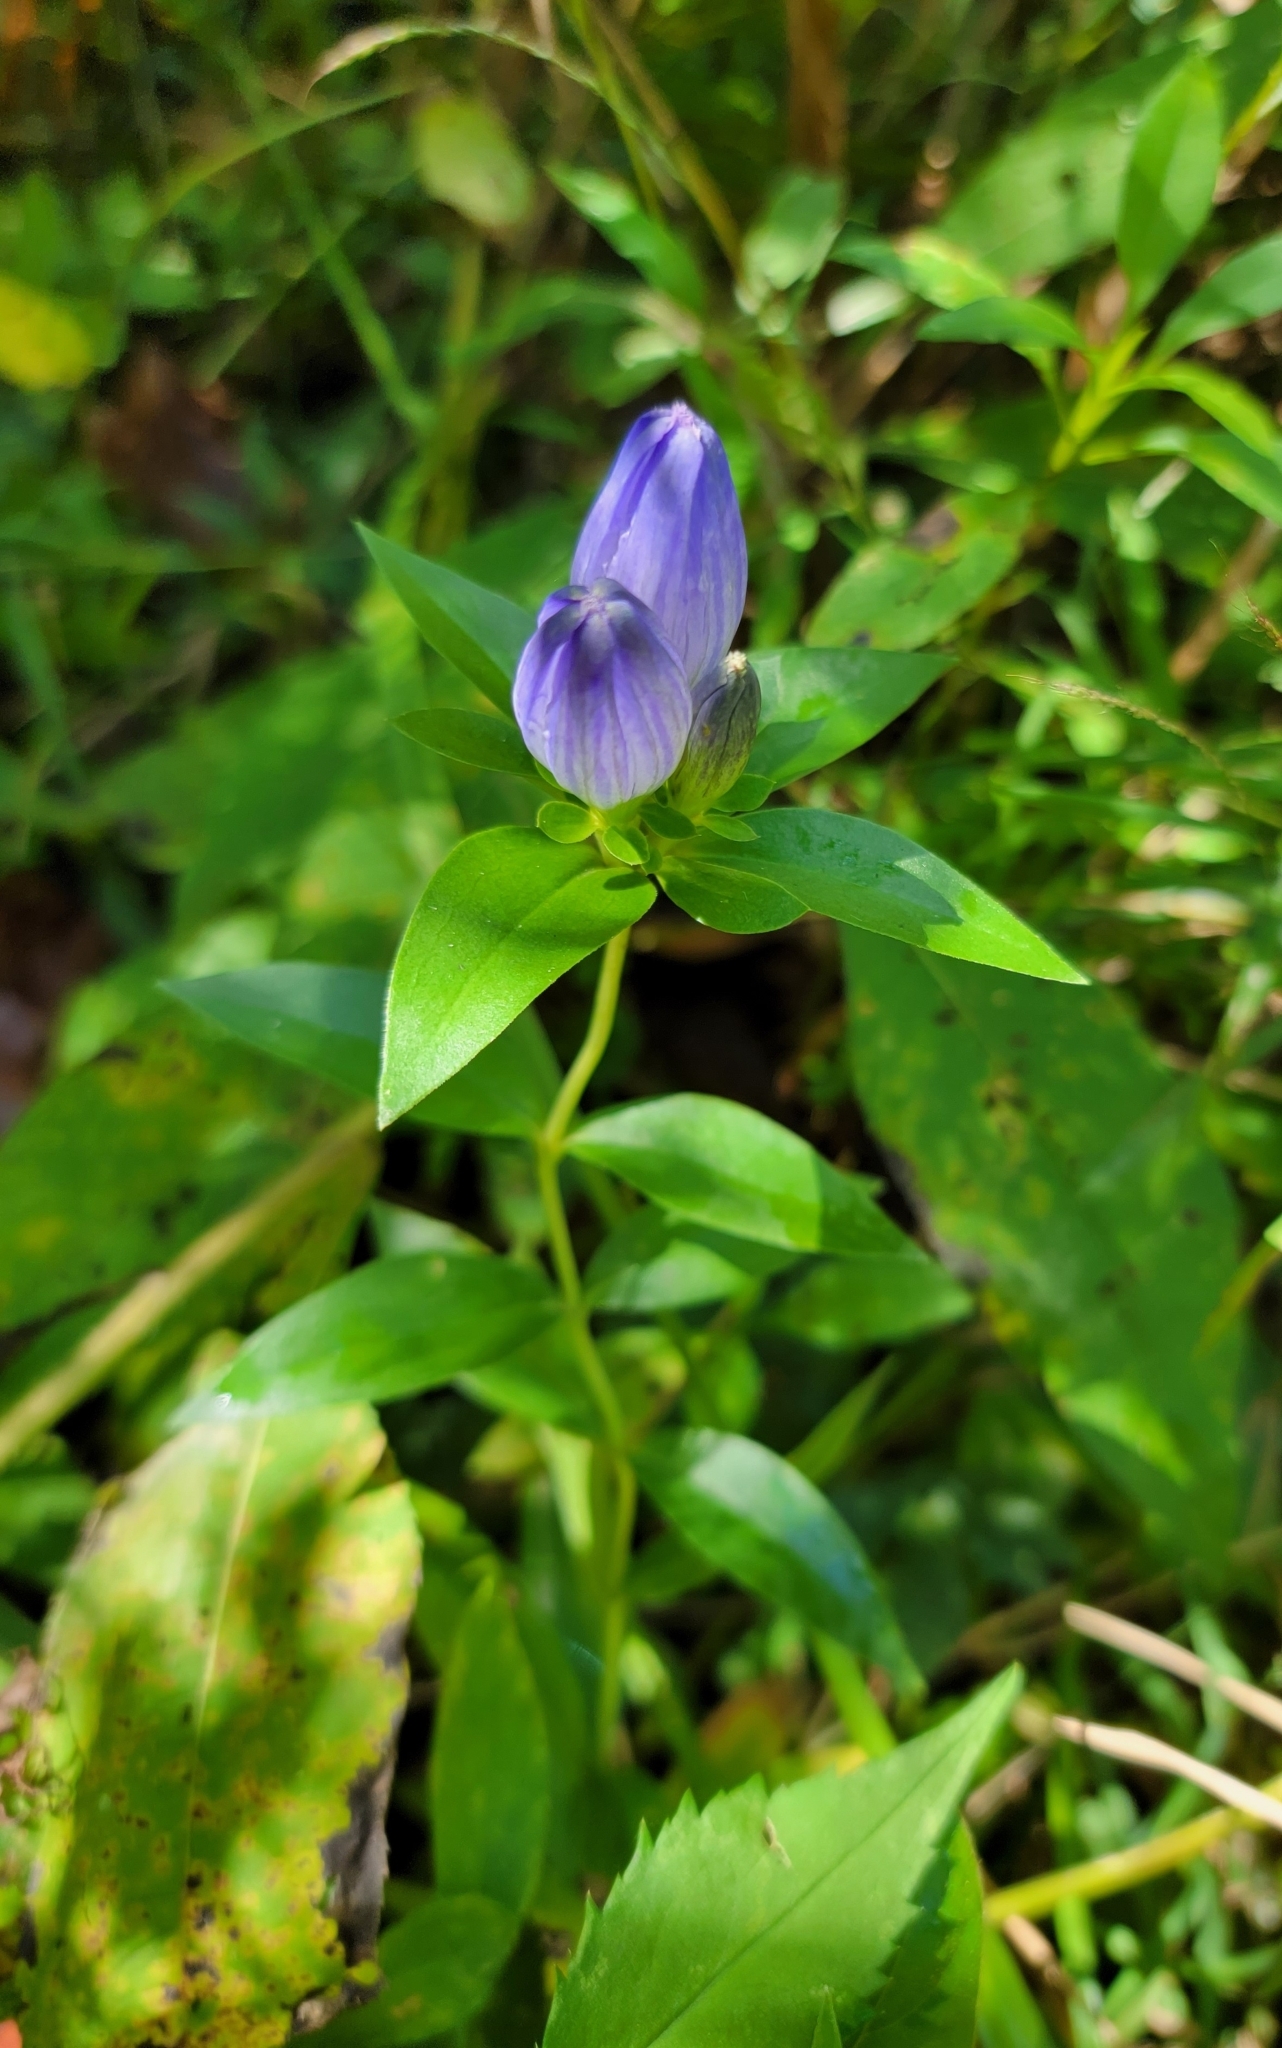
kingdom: Plantae
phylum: Tracheophyta
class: Magnoliopsida
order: Gentianales
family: Gentianaceae
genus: Gentiana
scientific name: Gentiana andrewsii
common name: Bottle gentian
